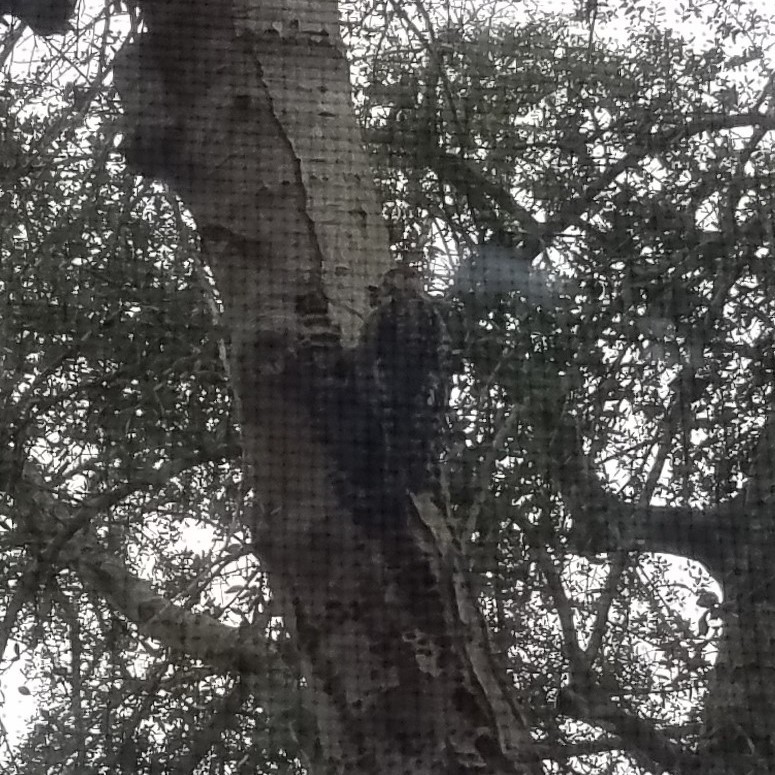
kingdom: Animalia
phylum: Chordata
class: Aves
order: Piciformes
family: Picidae
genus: Sphyrapicus
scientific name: Sphyrapicus varius
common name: Yellow-bellied sapsucker
